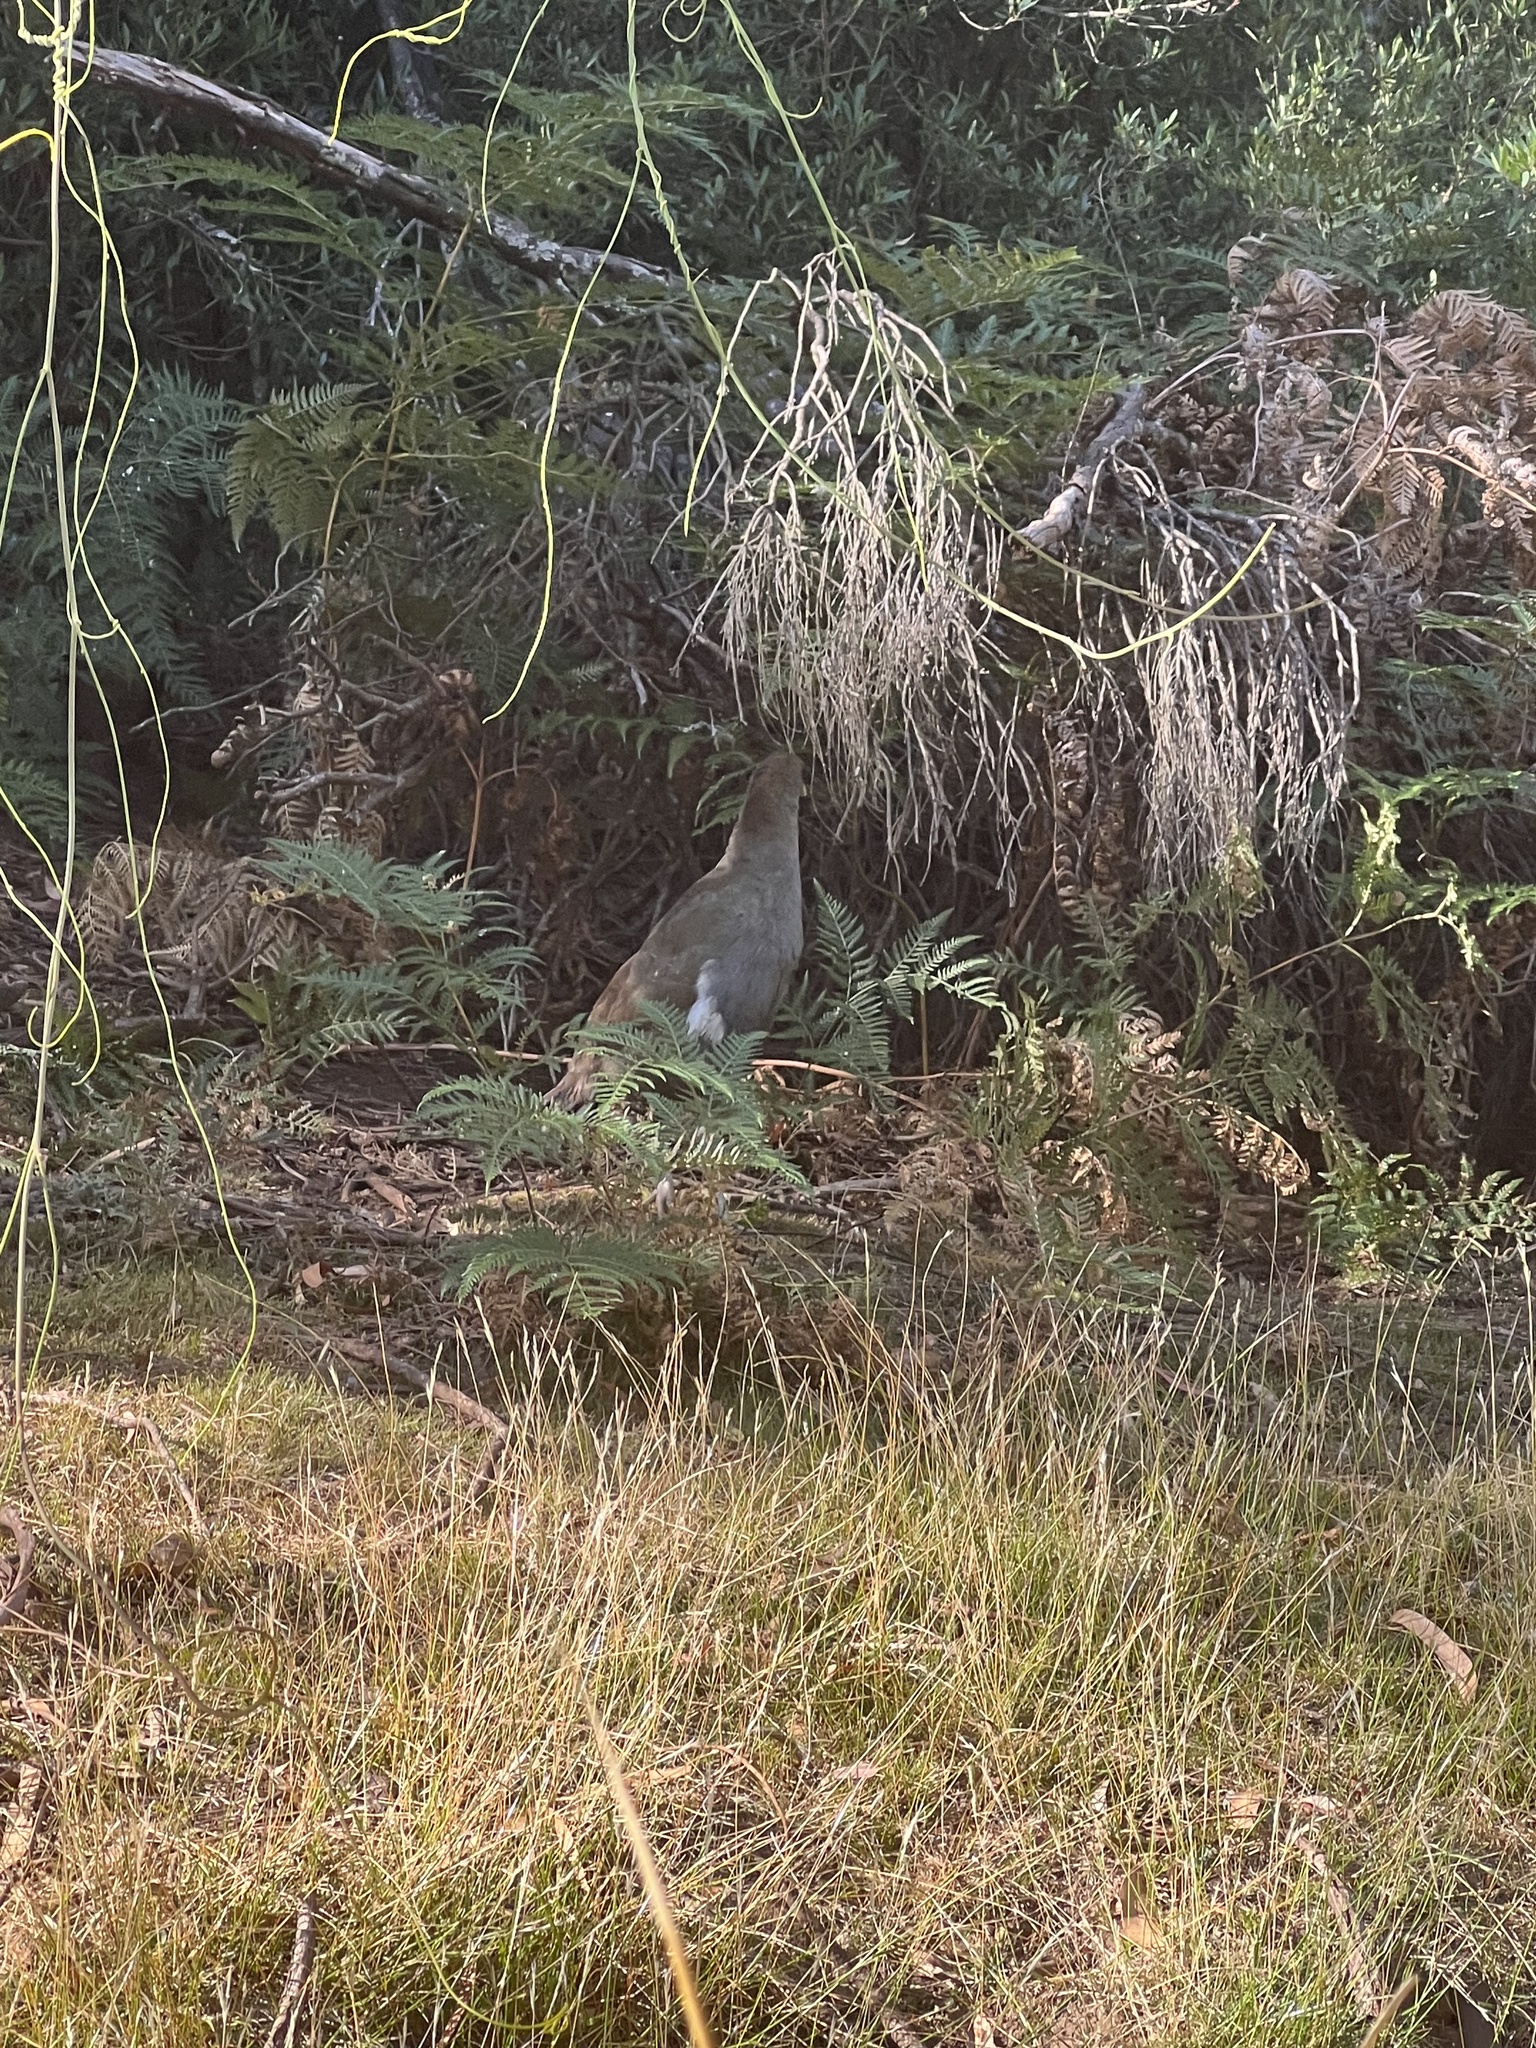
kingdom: Animalia
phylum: Chordata
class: Aves
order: Gruiformes
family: Rallidae
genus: Gallinula
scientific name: Gallinula mortierii
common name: Tasmanian nativehen
